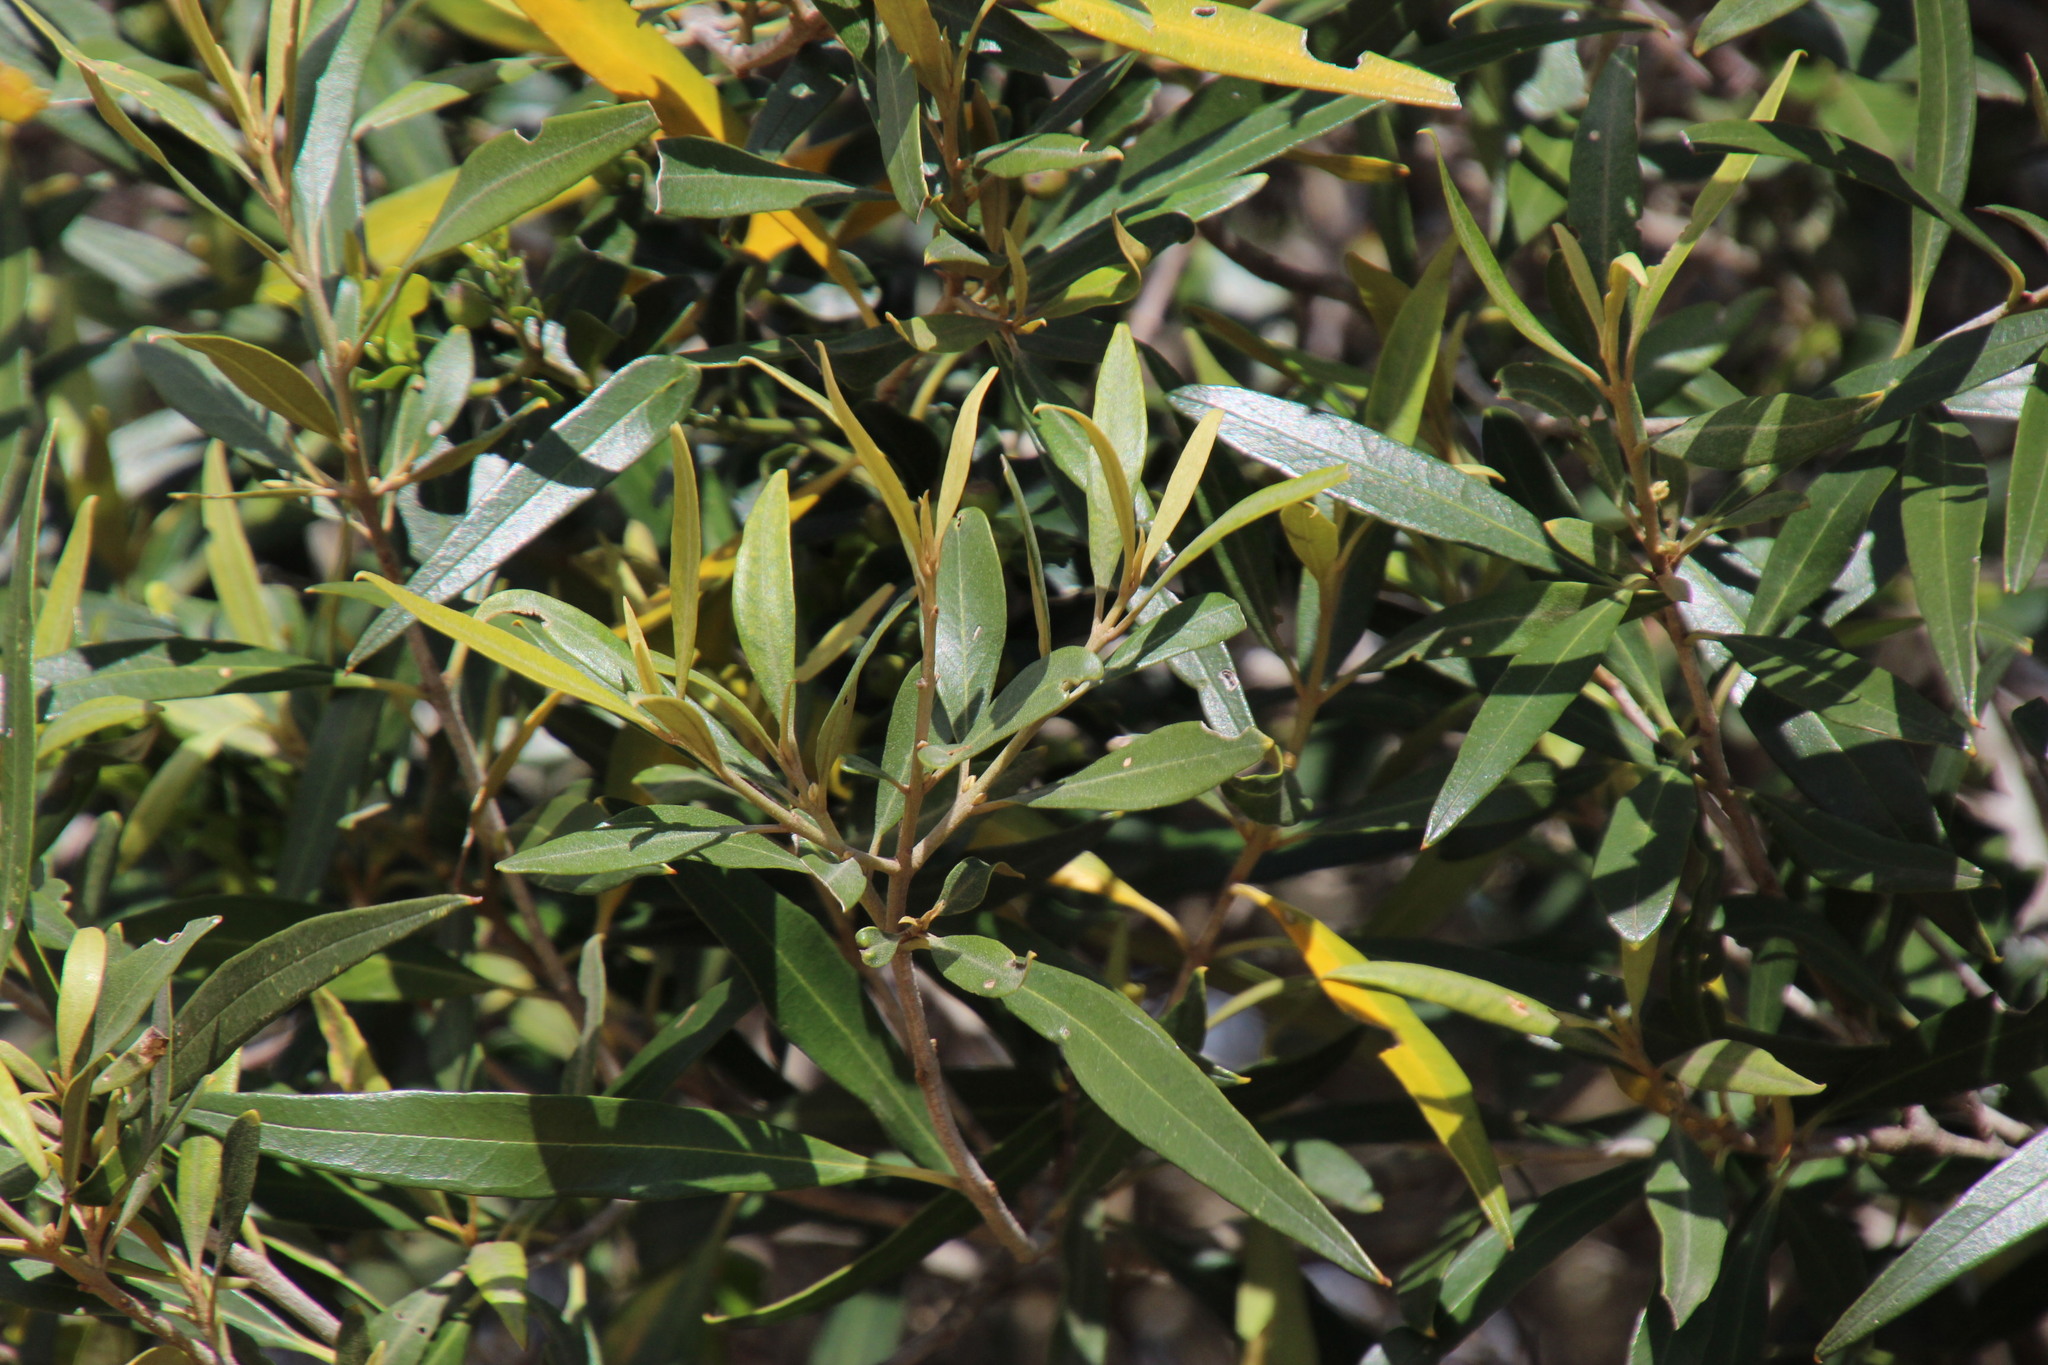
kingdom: Plantae
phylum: Tracheophyta
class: Magnoliopsida
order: Lamiales
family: Oleaceae
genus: Olea
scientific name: Olea europaea
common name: Olive
